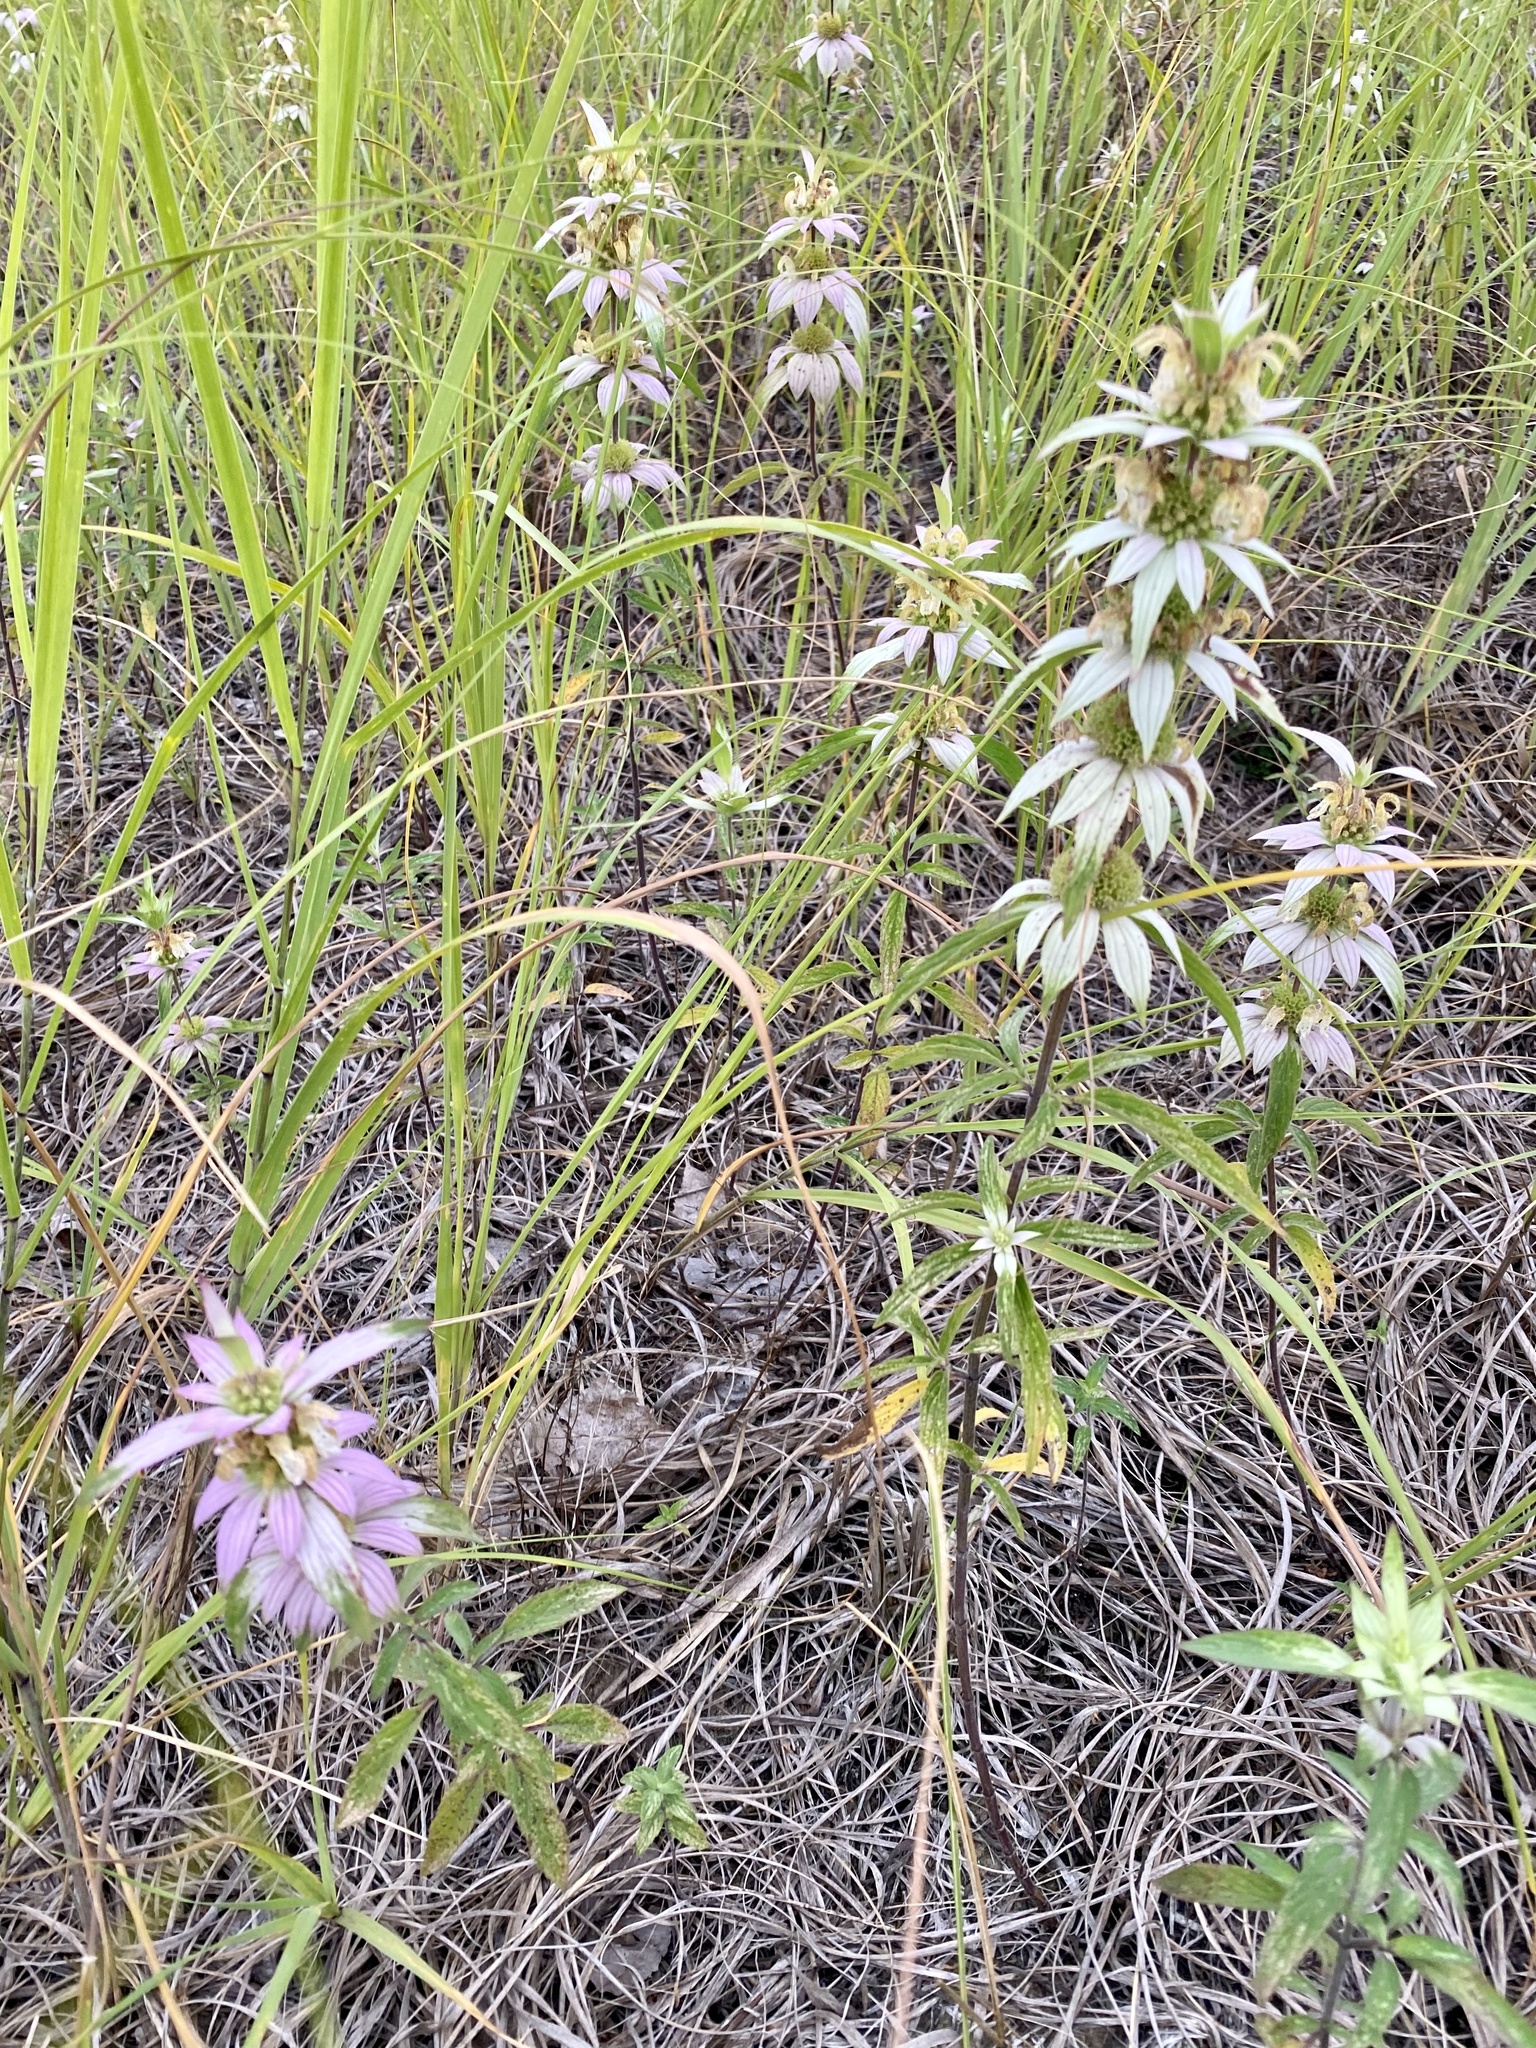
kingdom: Plantae
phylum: Tracheophyta
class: Magnoliopsida
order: Lamiales
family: Lamiaceae
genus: Monarda
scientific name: Monarda punctata
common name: Dotted monarda
